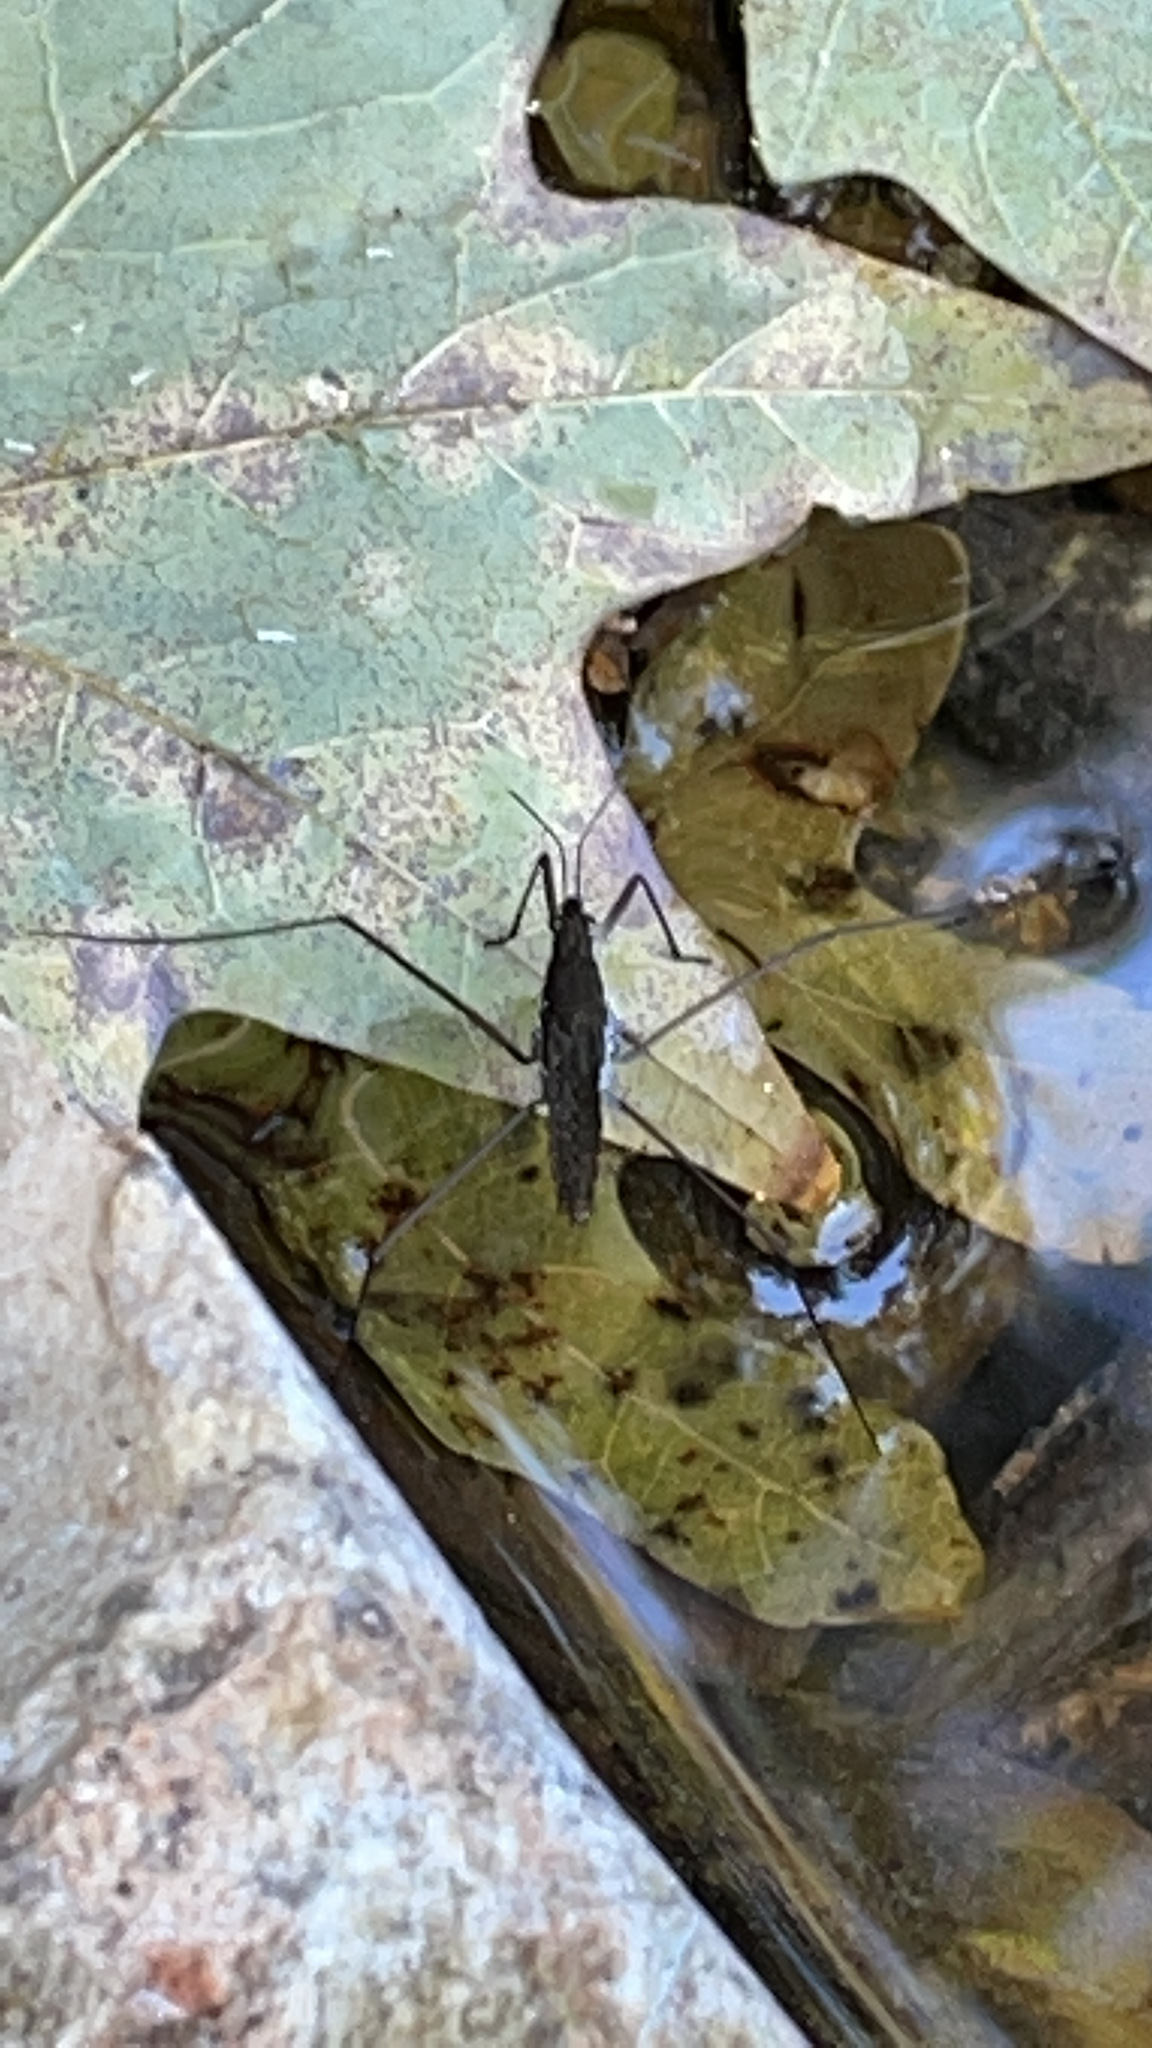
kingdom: Animalia
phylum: Arthropoda
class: Insecta
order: Hemiptera
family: Gerridae
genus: Aquarius
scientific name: Aquarius
